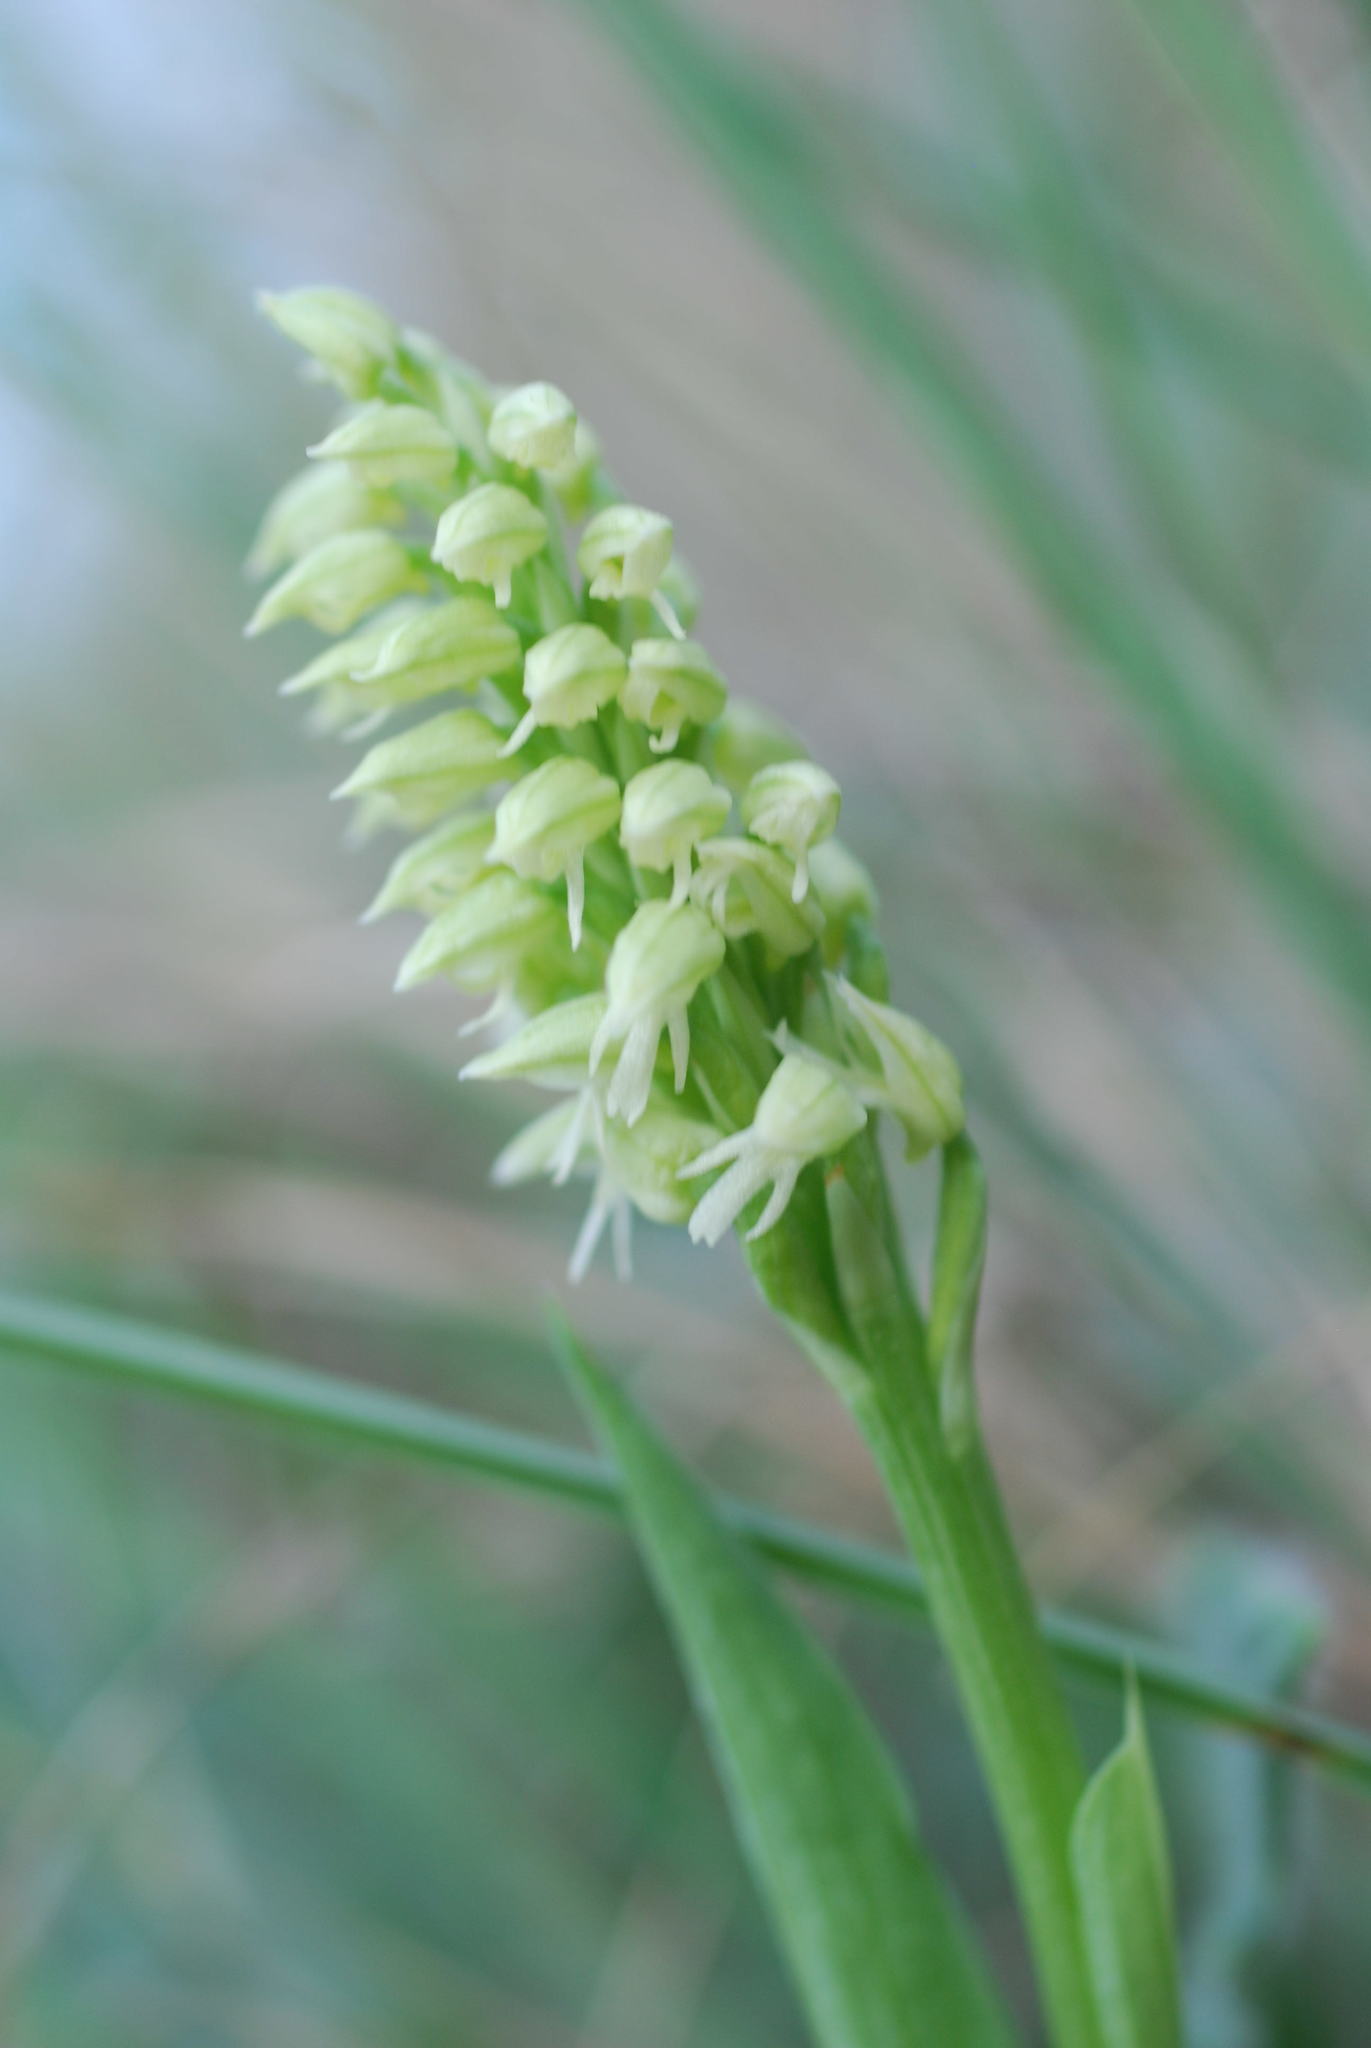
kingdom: Plantae
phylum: Tracheophyta
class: Liliopsida
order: Asparagales
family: Orchidaceae
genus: Neotinea
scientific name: Neotinea maculata
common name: Dense-flowered orchid
